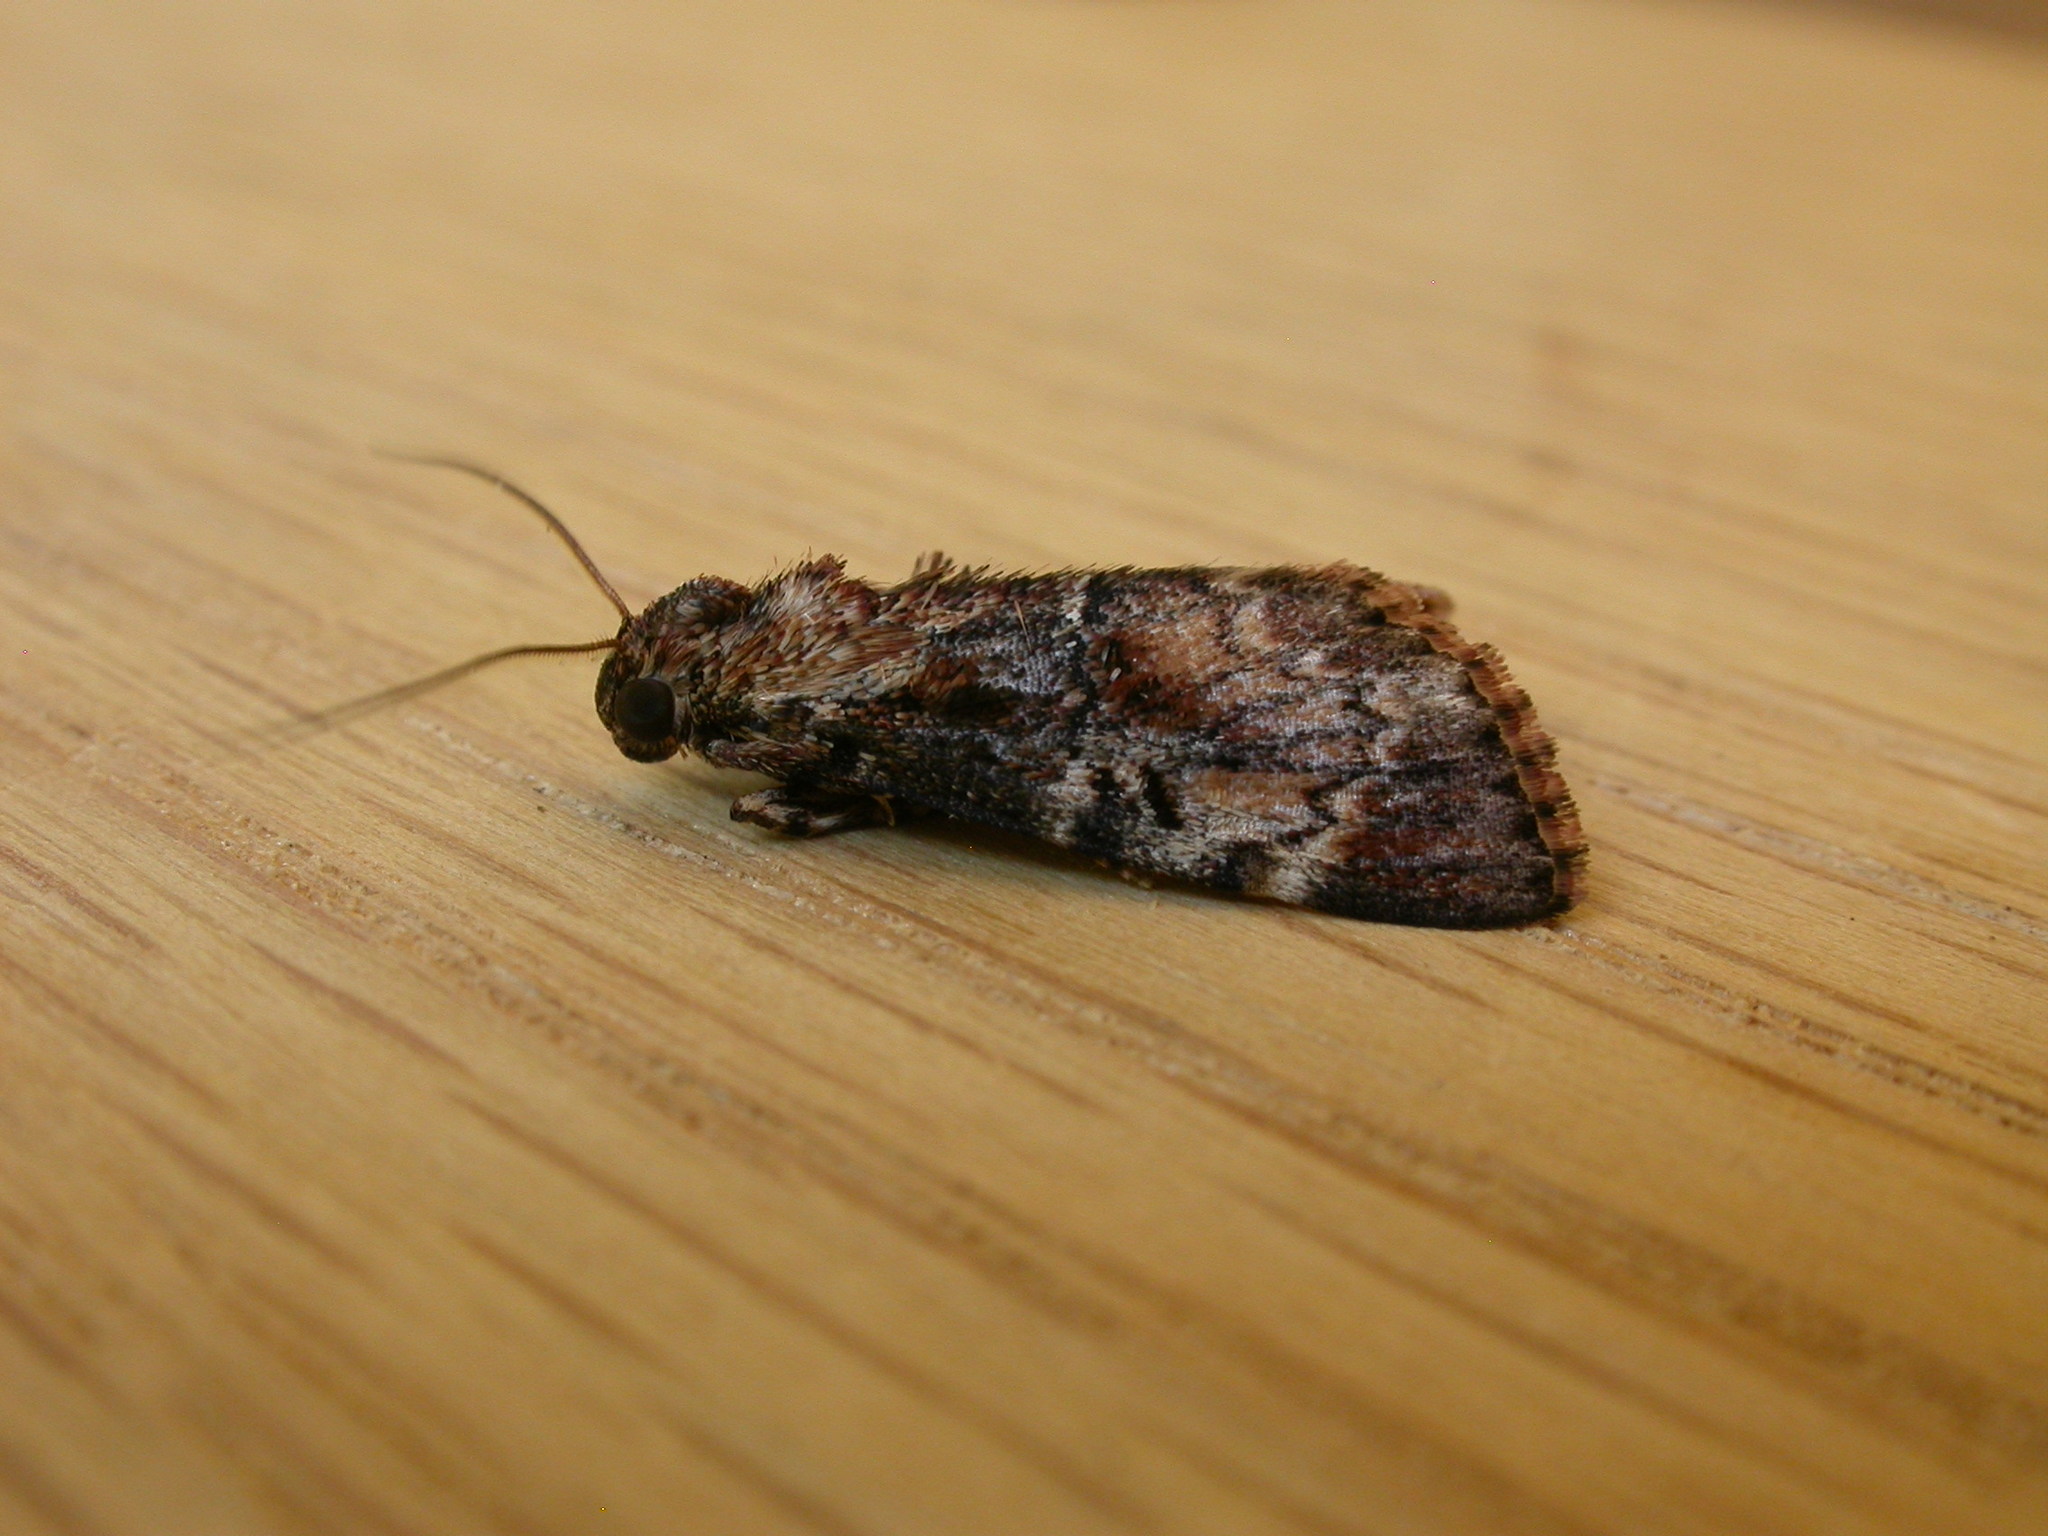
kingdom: Animalia
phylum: Arthropoda
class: Insecta
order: Lepidoptera
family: Pyralidae
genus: Orthaga
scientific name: Orthaga thyrisalis
